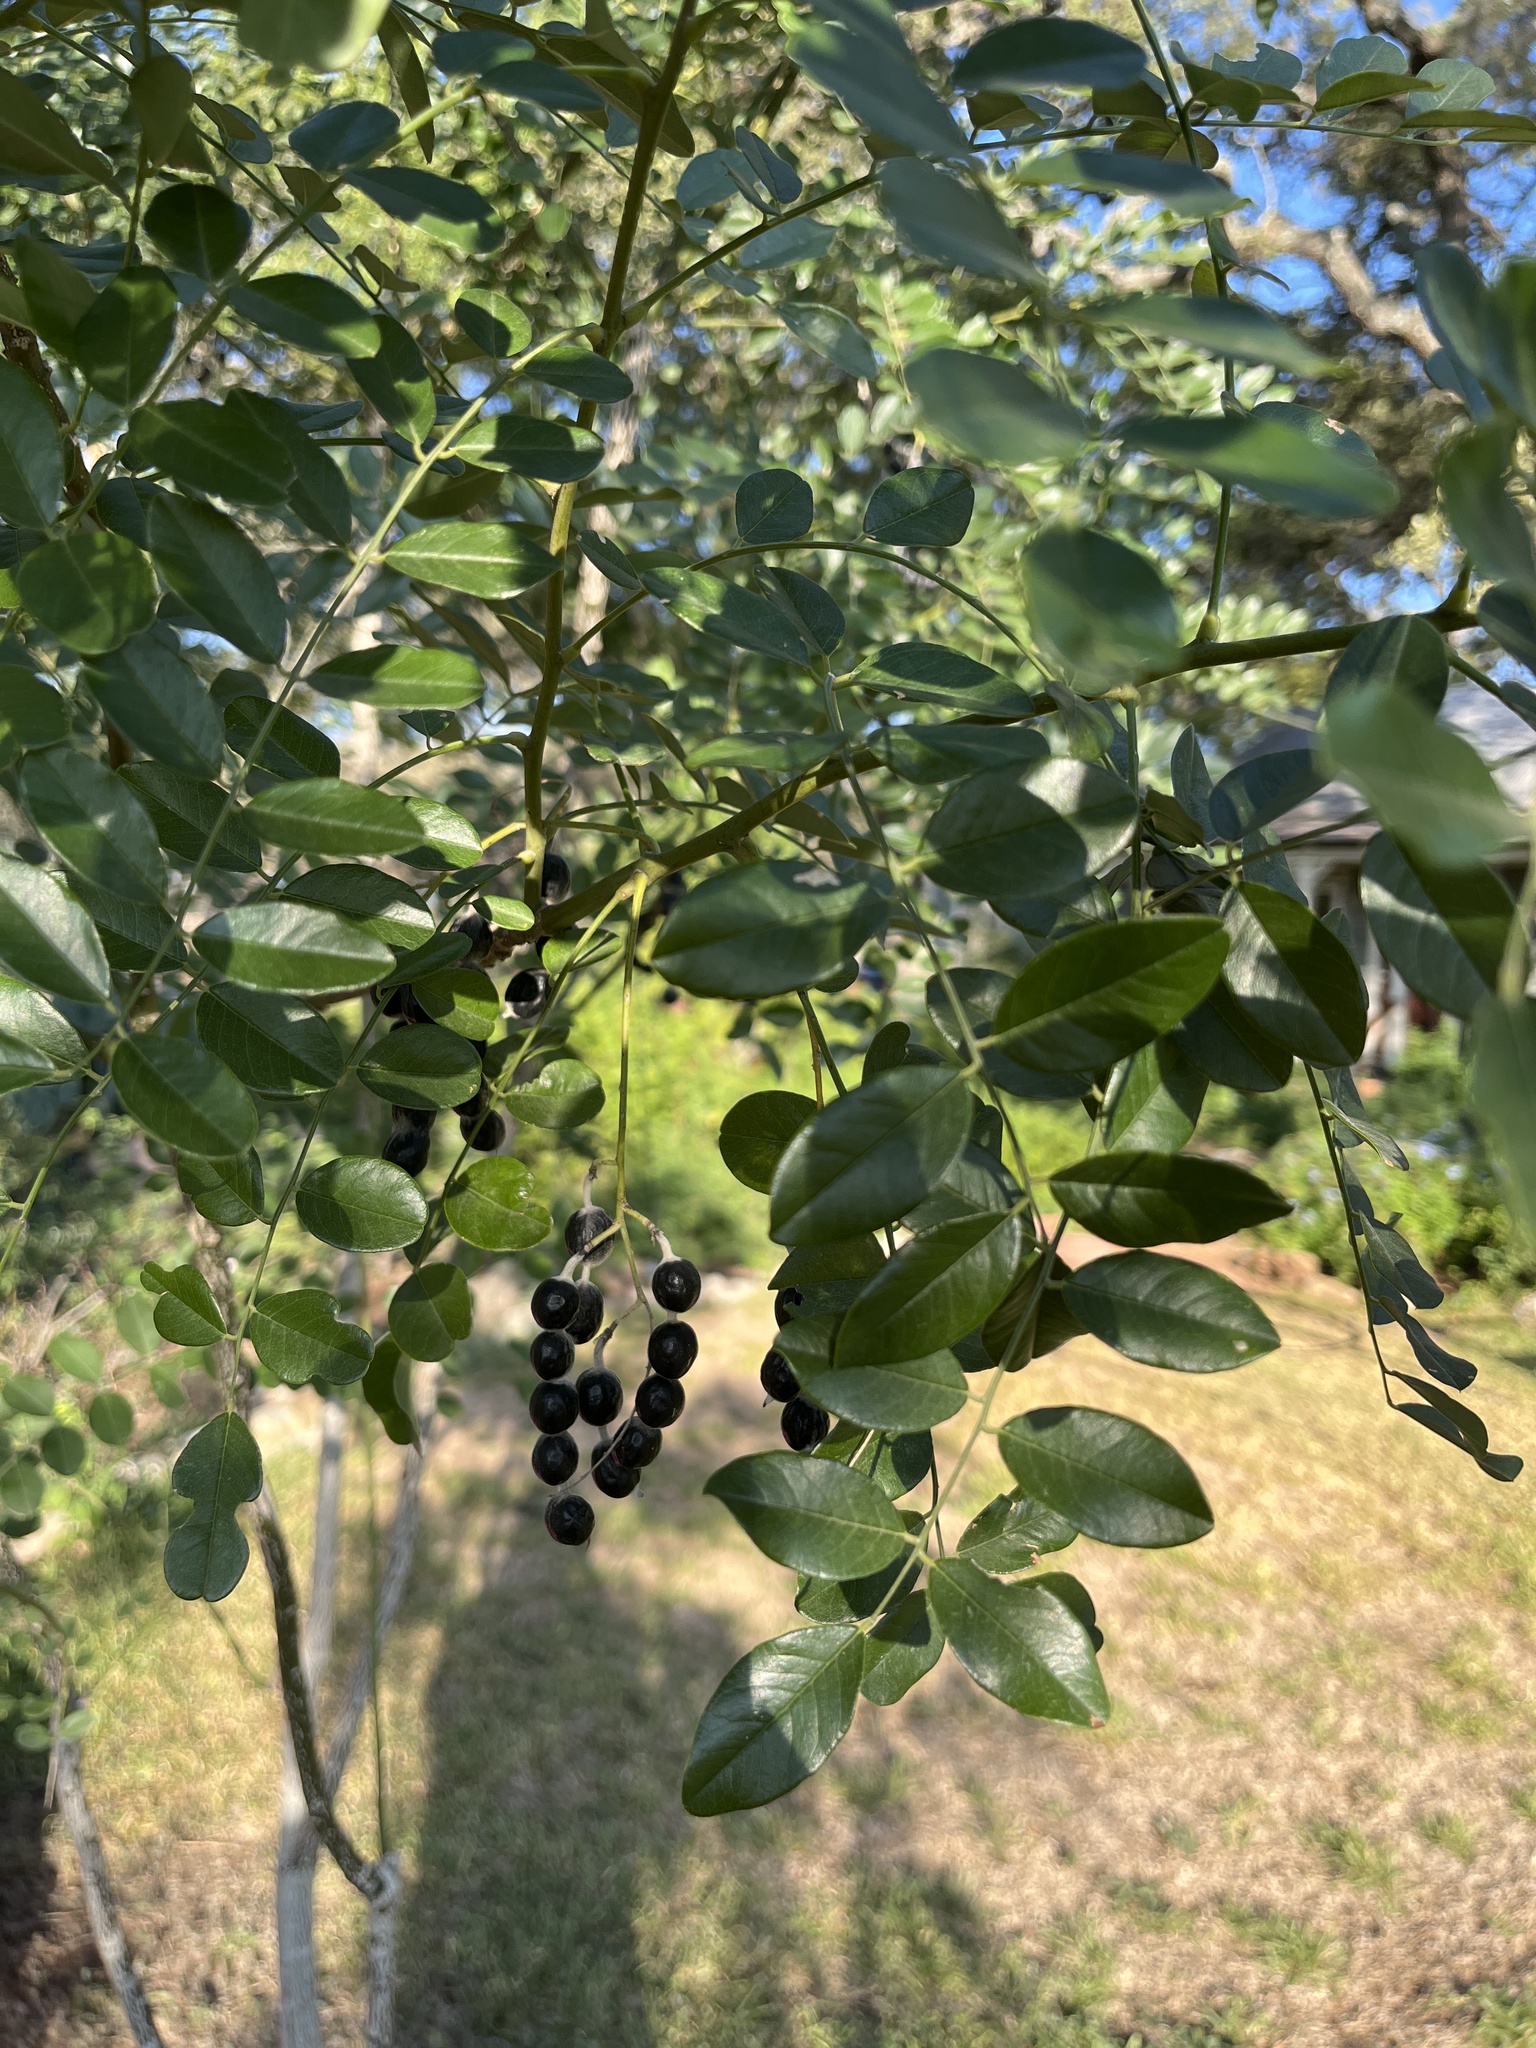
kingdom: Plantae
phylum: Tracheophyta
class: Magnoliopsida
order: Fabales
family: Fabaceae
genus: Styphnolobium
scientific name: Styphnolobium affine
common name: Texas sophora
